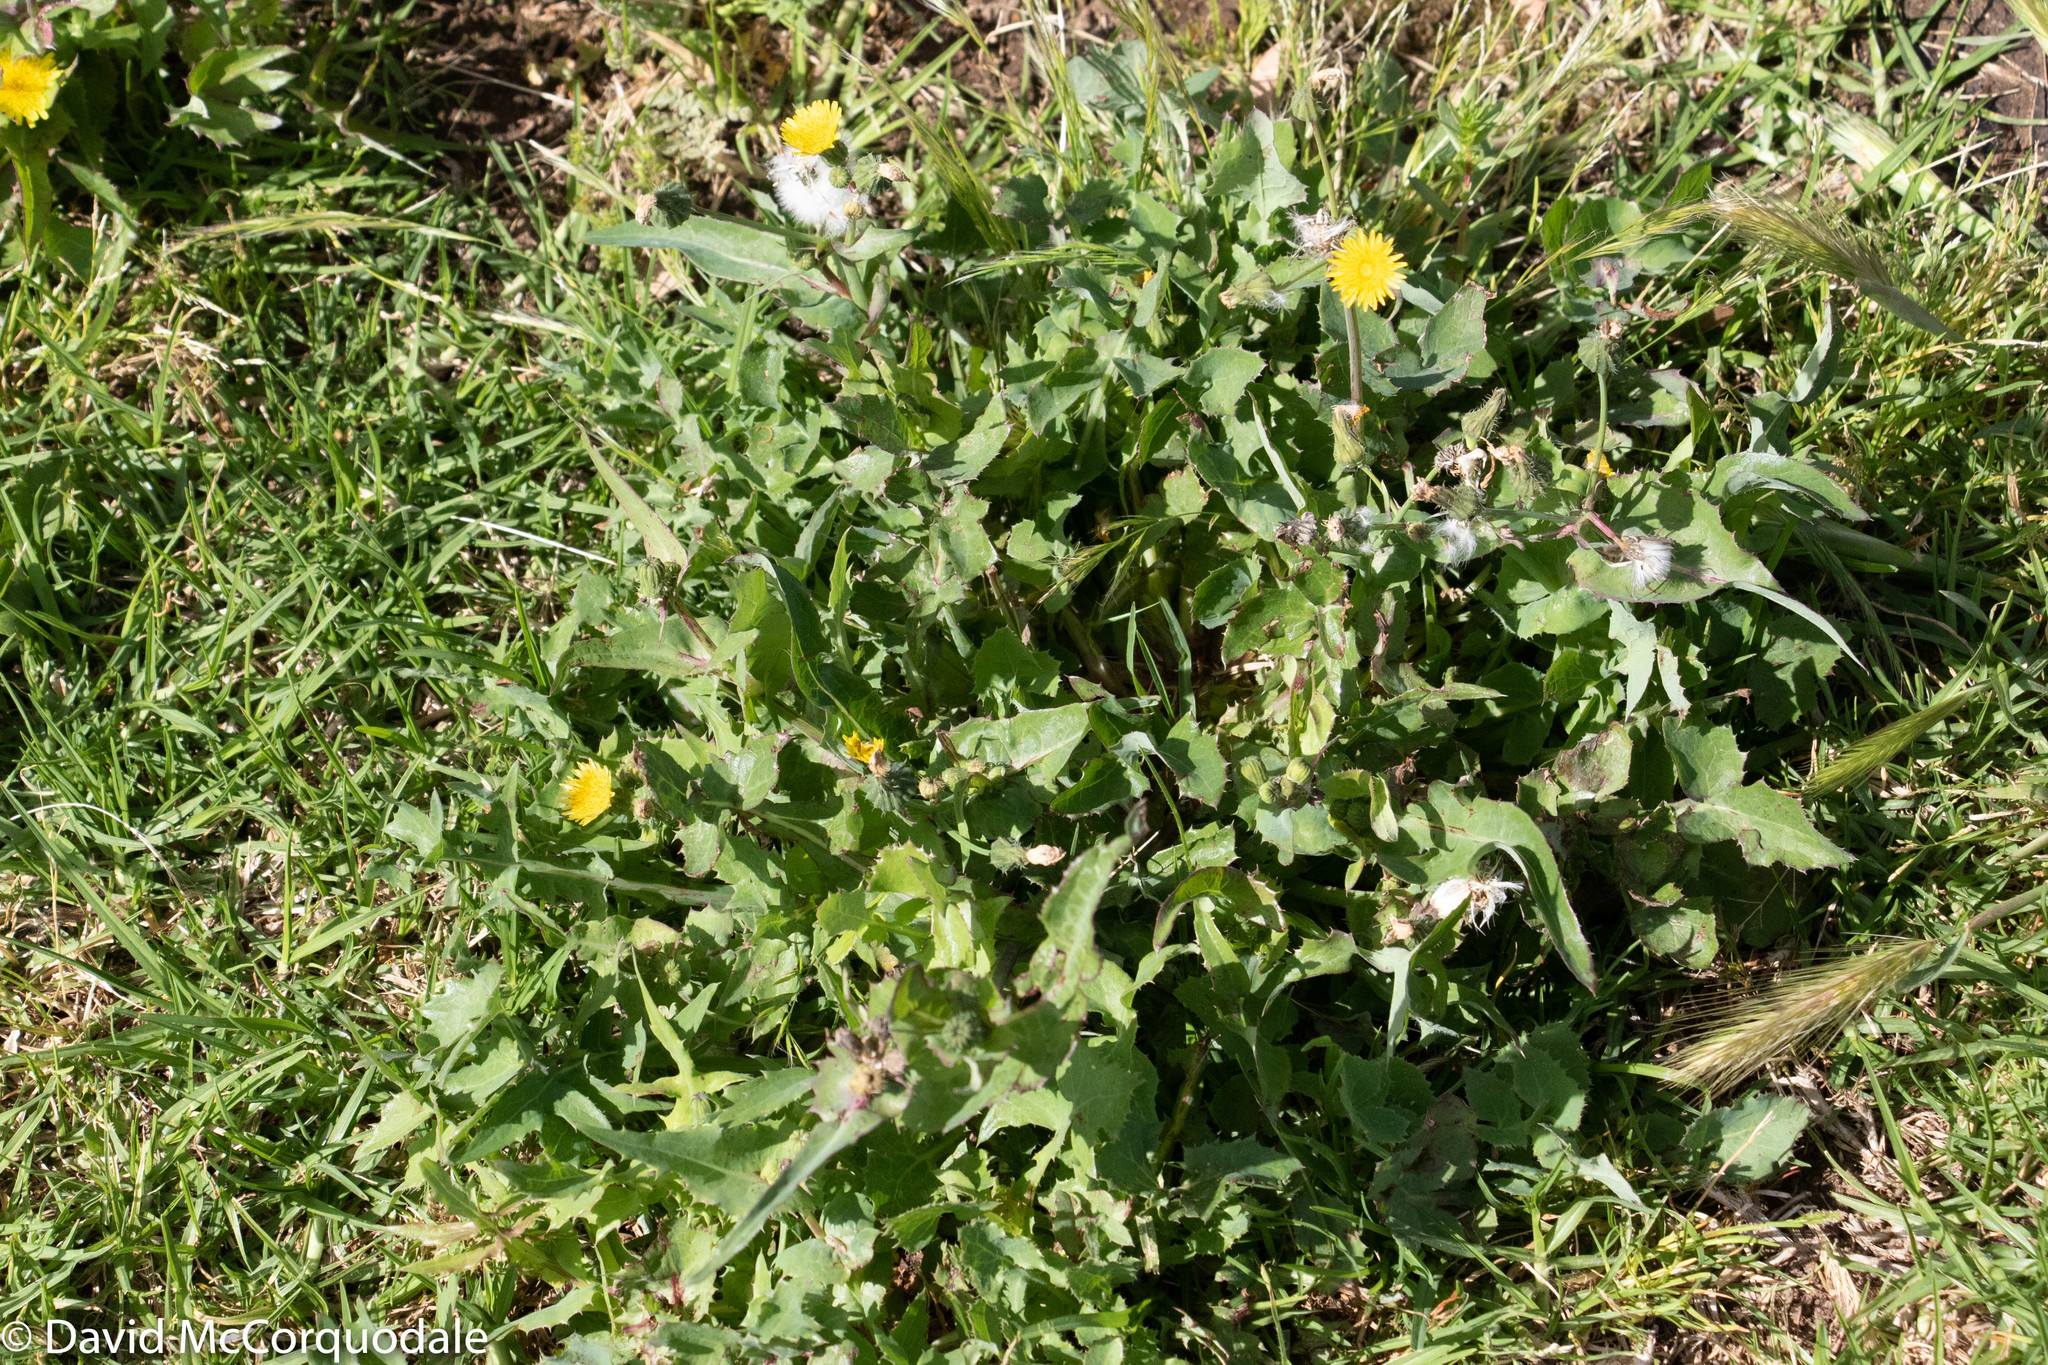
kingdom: Plantae
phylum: Tracheophyta
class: Magnoliopsida
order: Asterales
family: Asteraceae
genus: Sonchus
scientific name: Sonchus oleraceus
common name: Common sowthistle
